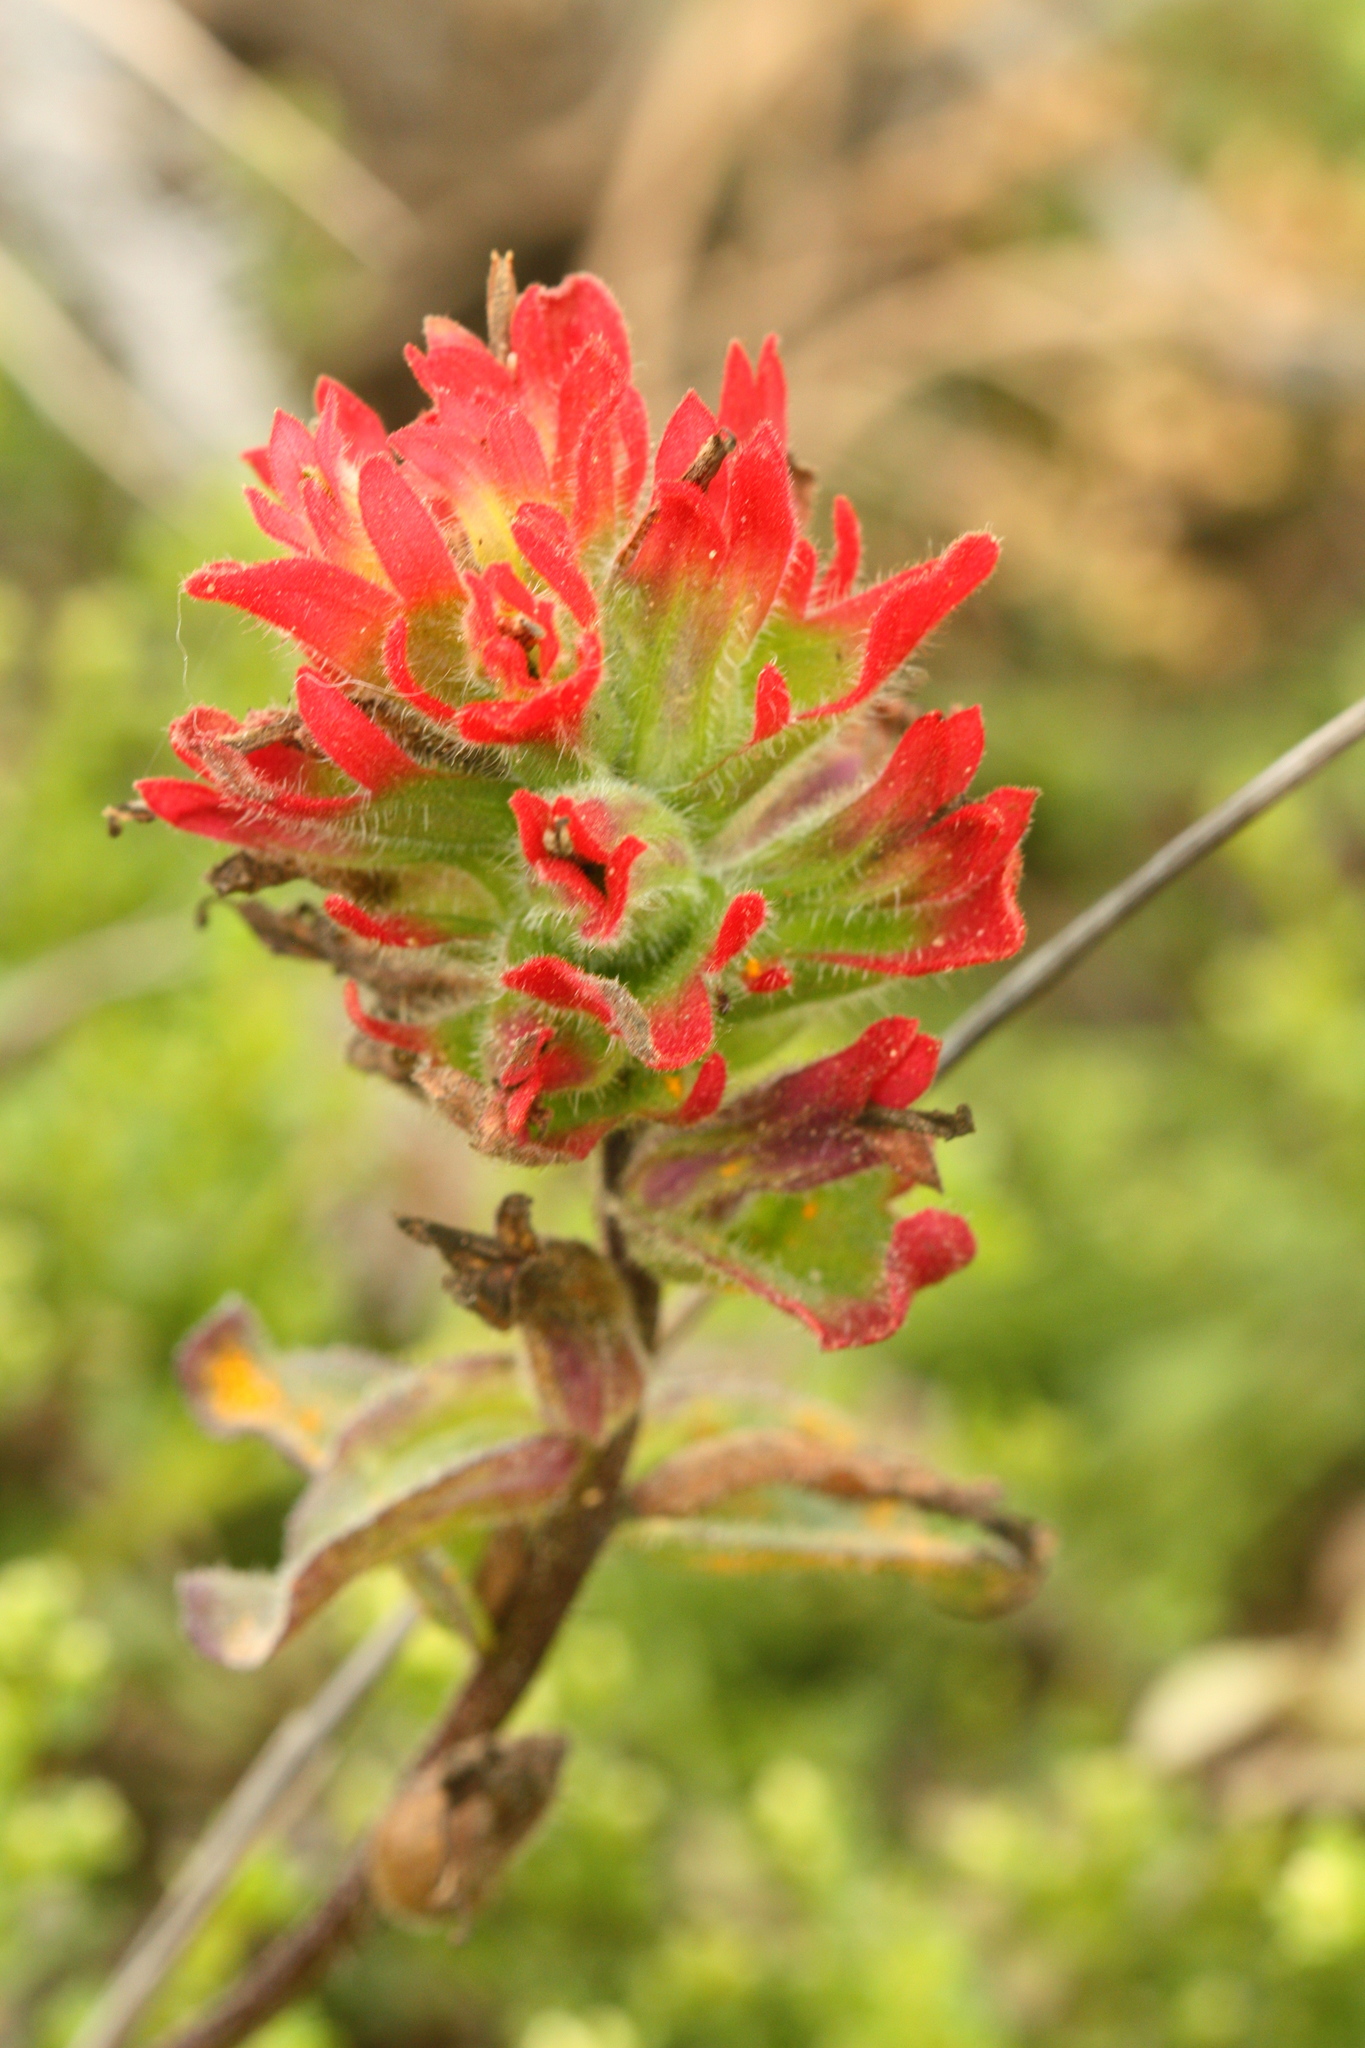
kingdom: Plantae
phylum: Tracheophyta
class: Magnoliopsida
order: Lamiales
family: Orobanchaceae
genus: Castilleja
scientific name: Castilleja affinis
